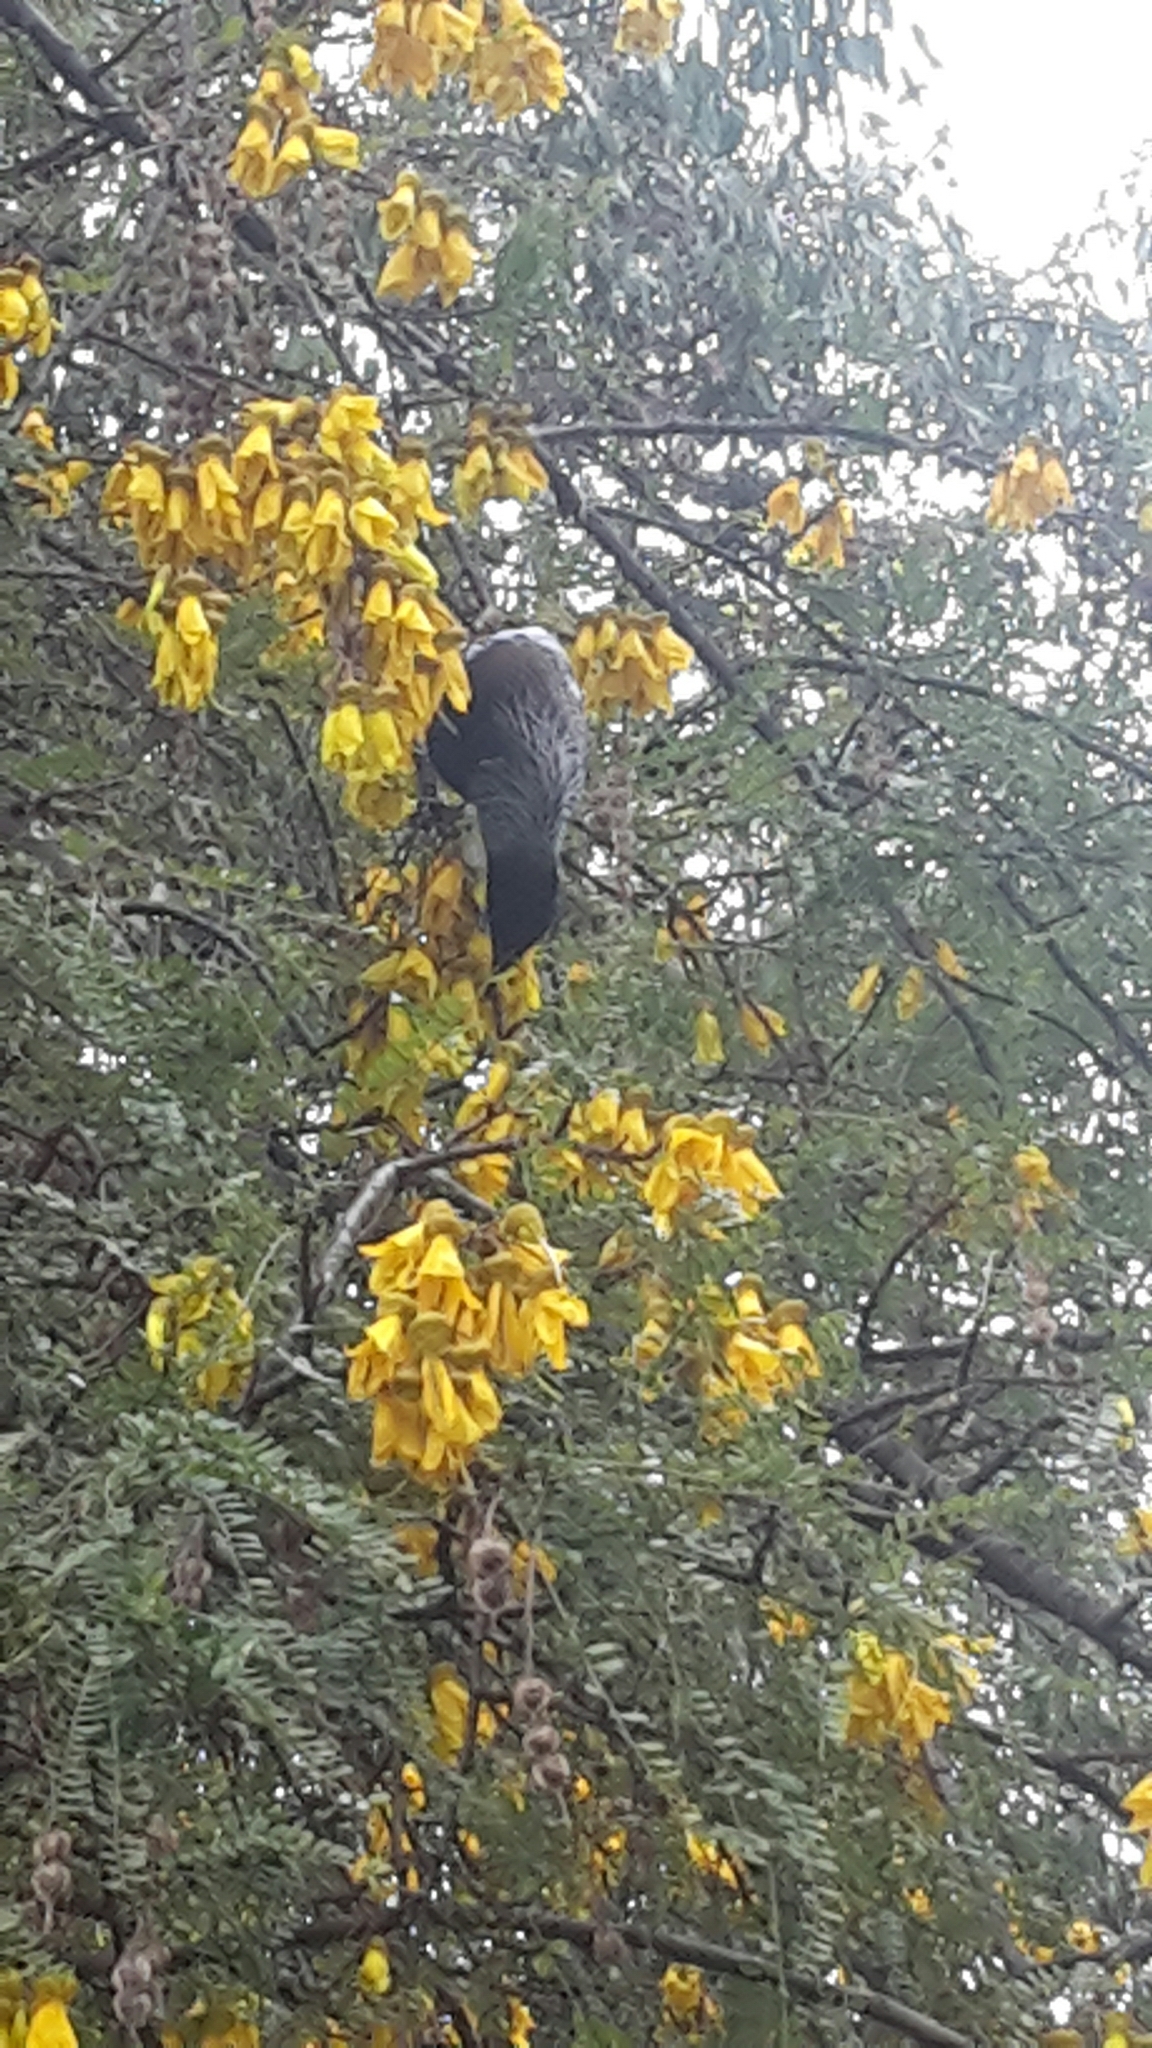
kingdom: Animalia
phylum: Chordata
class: Aves
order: Passeriformes
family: Meliphagidae
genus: Prosthemadera
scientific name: Prosthemadera novaeseelandiae
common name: Tui
